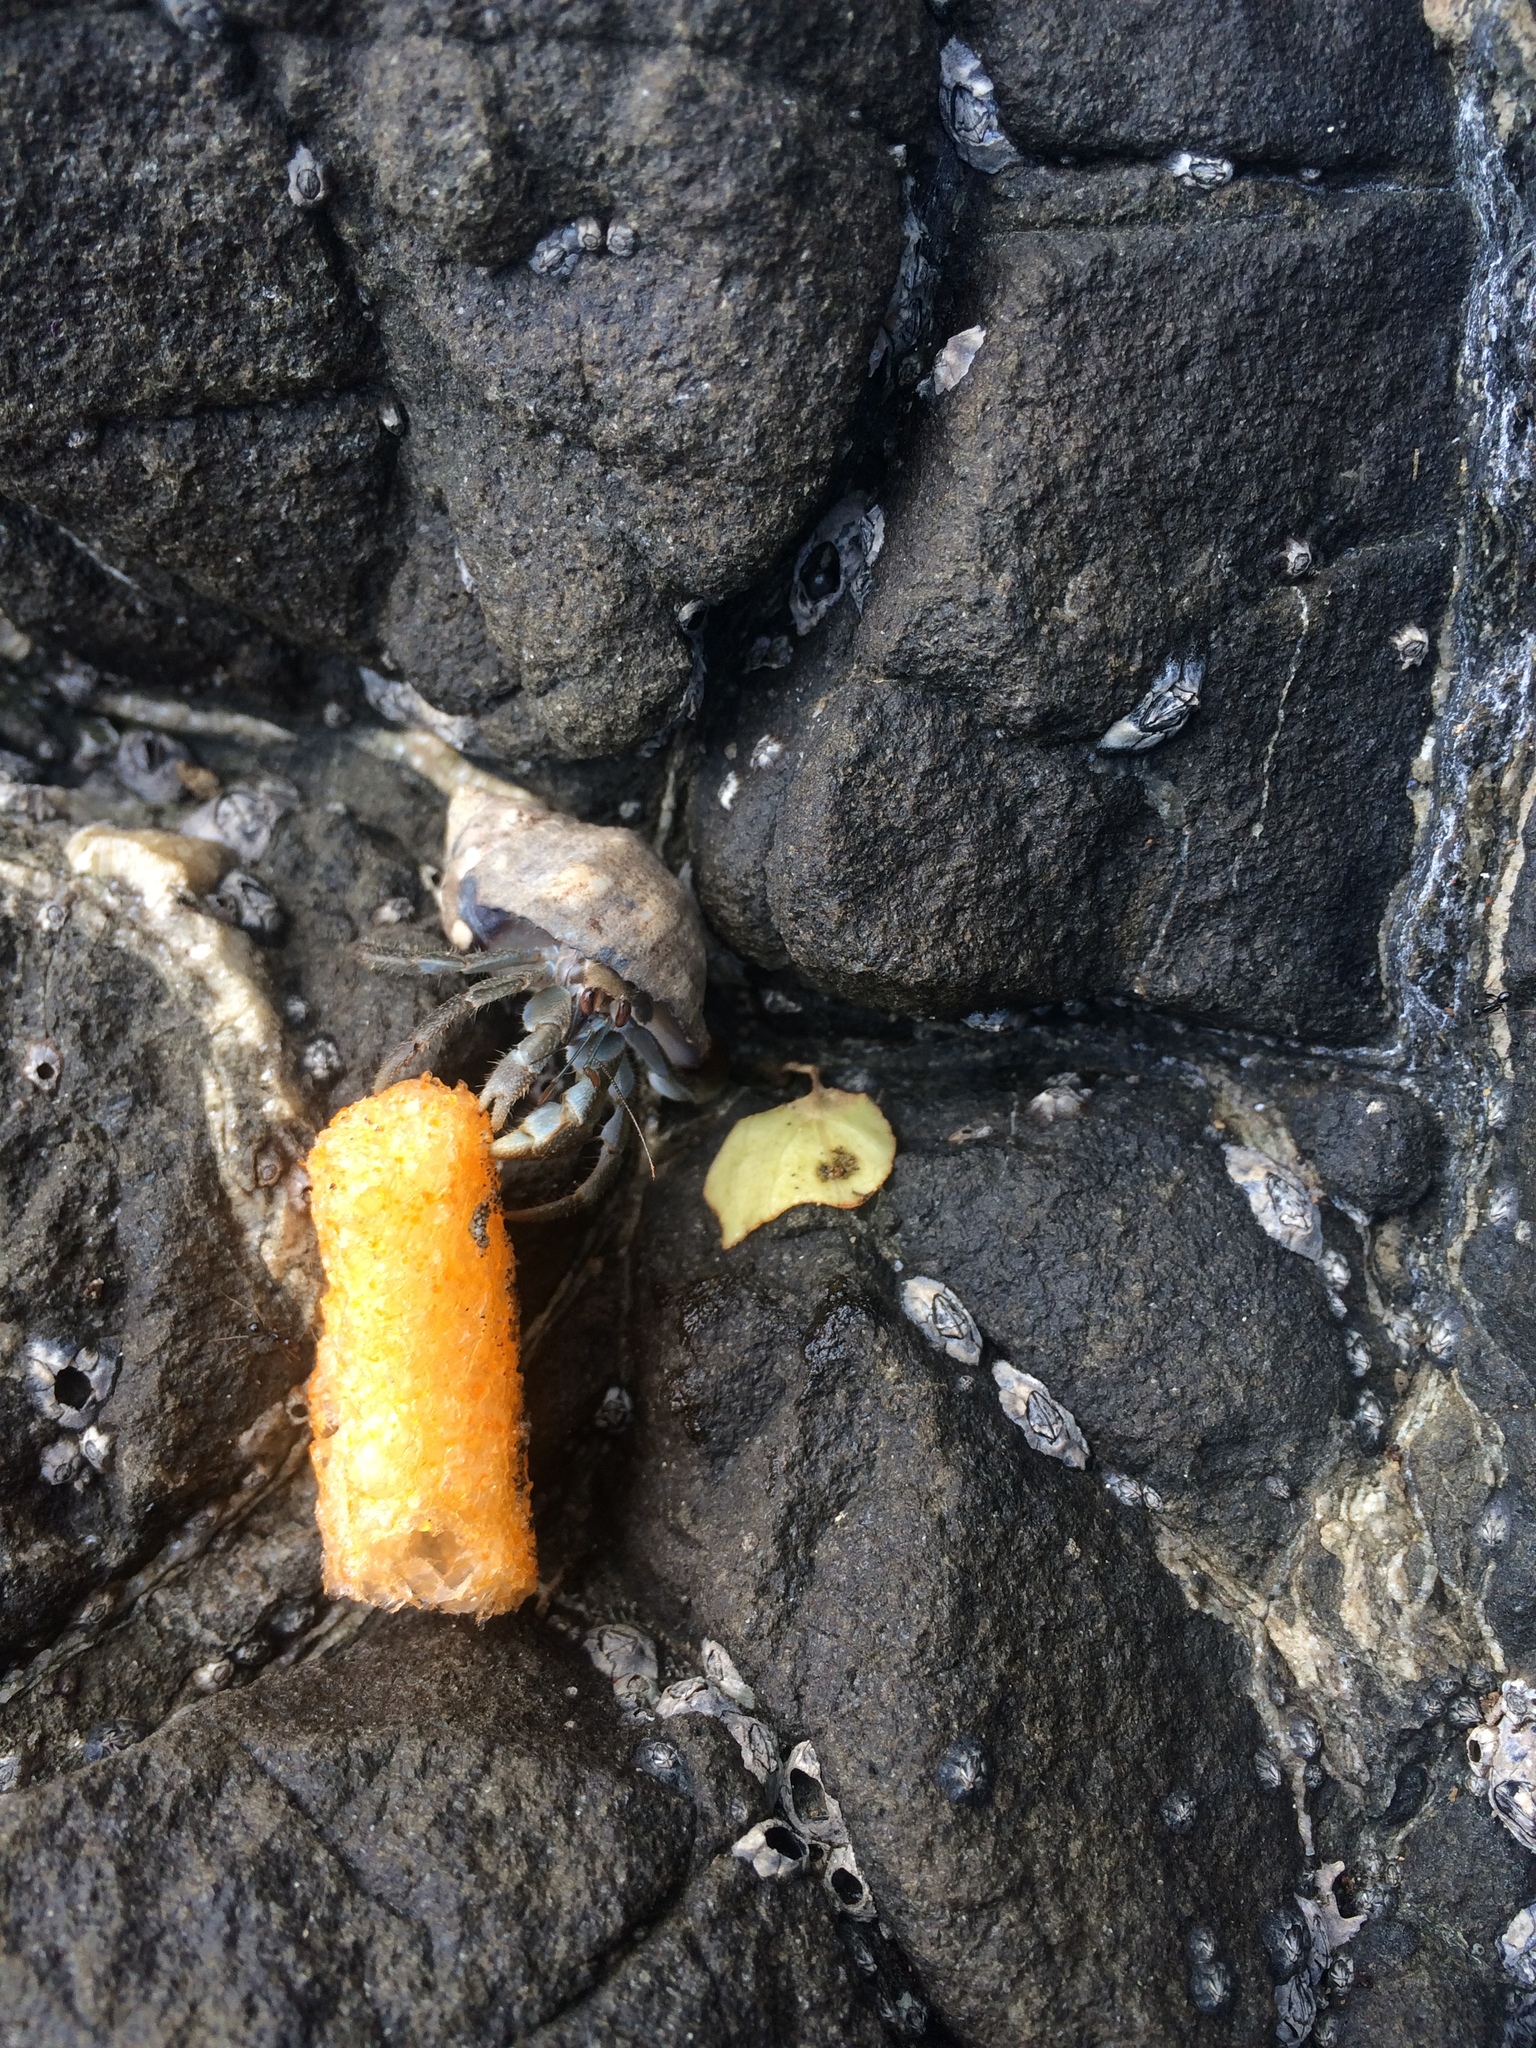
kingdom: Animalia
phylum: Arthropoda
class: Malacostraca
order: Decapoda
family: Coenobitidae
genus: Coenobita
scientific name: Coenobita compressus
